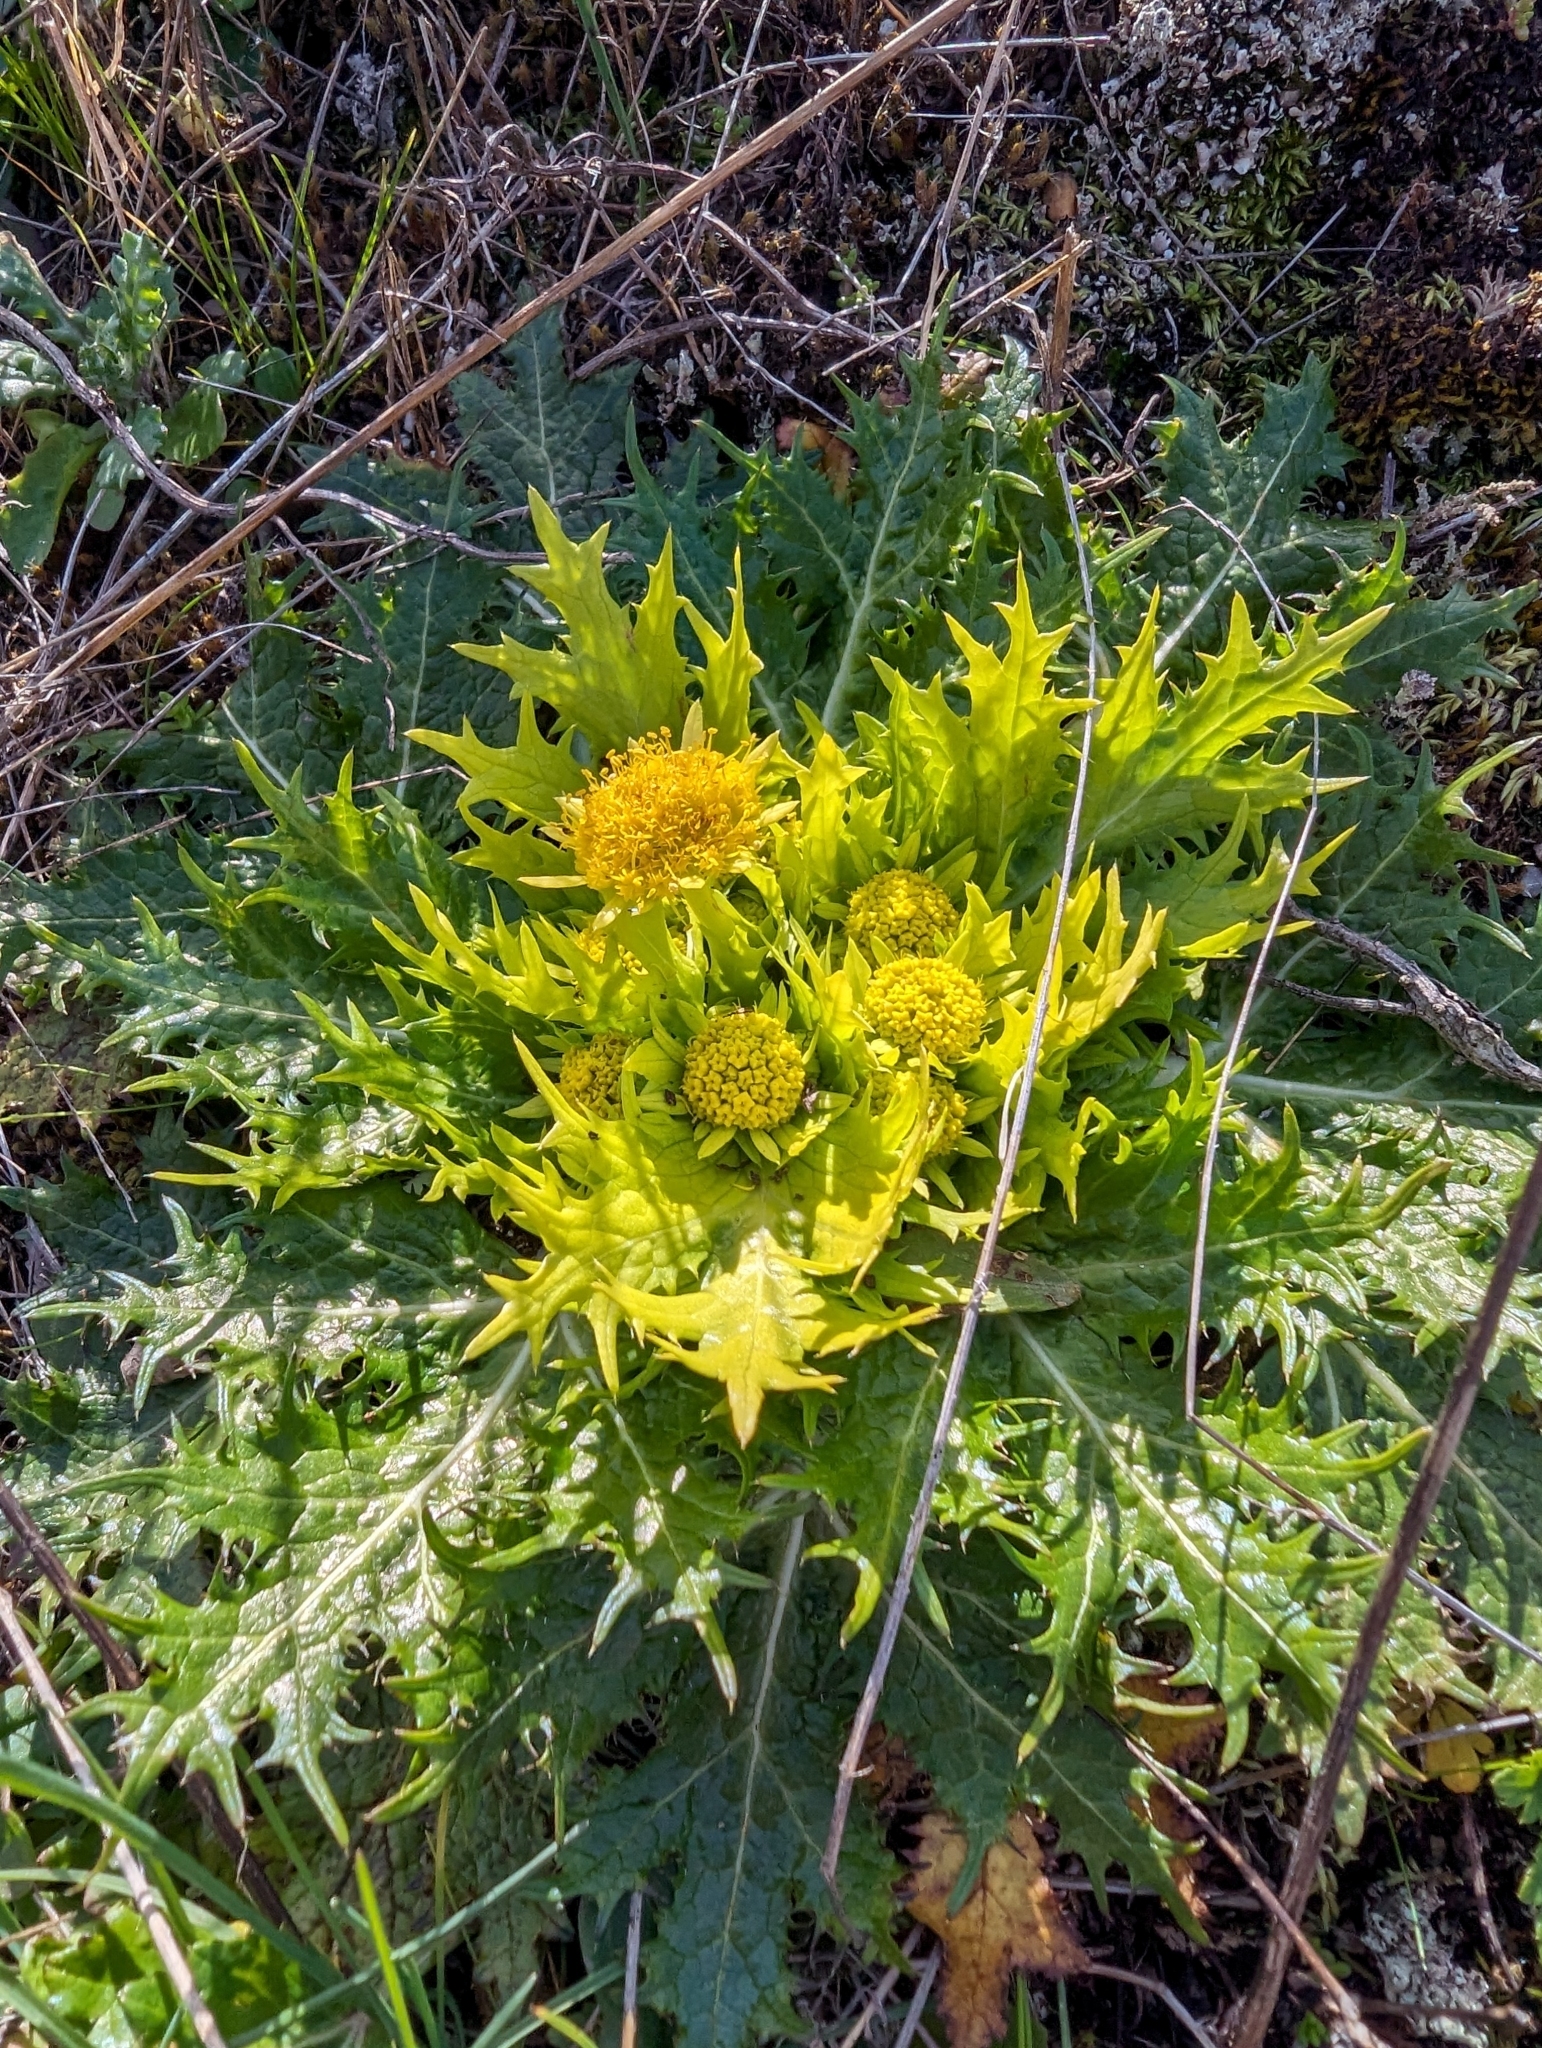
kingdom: Plantae
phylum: Tracheophyta
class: Magnoliopsida
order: Apiales
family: Apiaceae
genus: Sanicula
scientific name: Sanicula arctopoides
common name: Footsteps-of-spring
